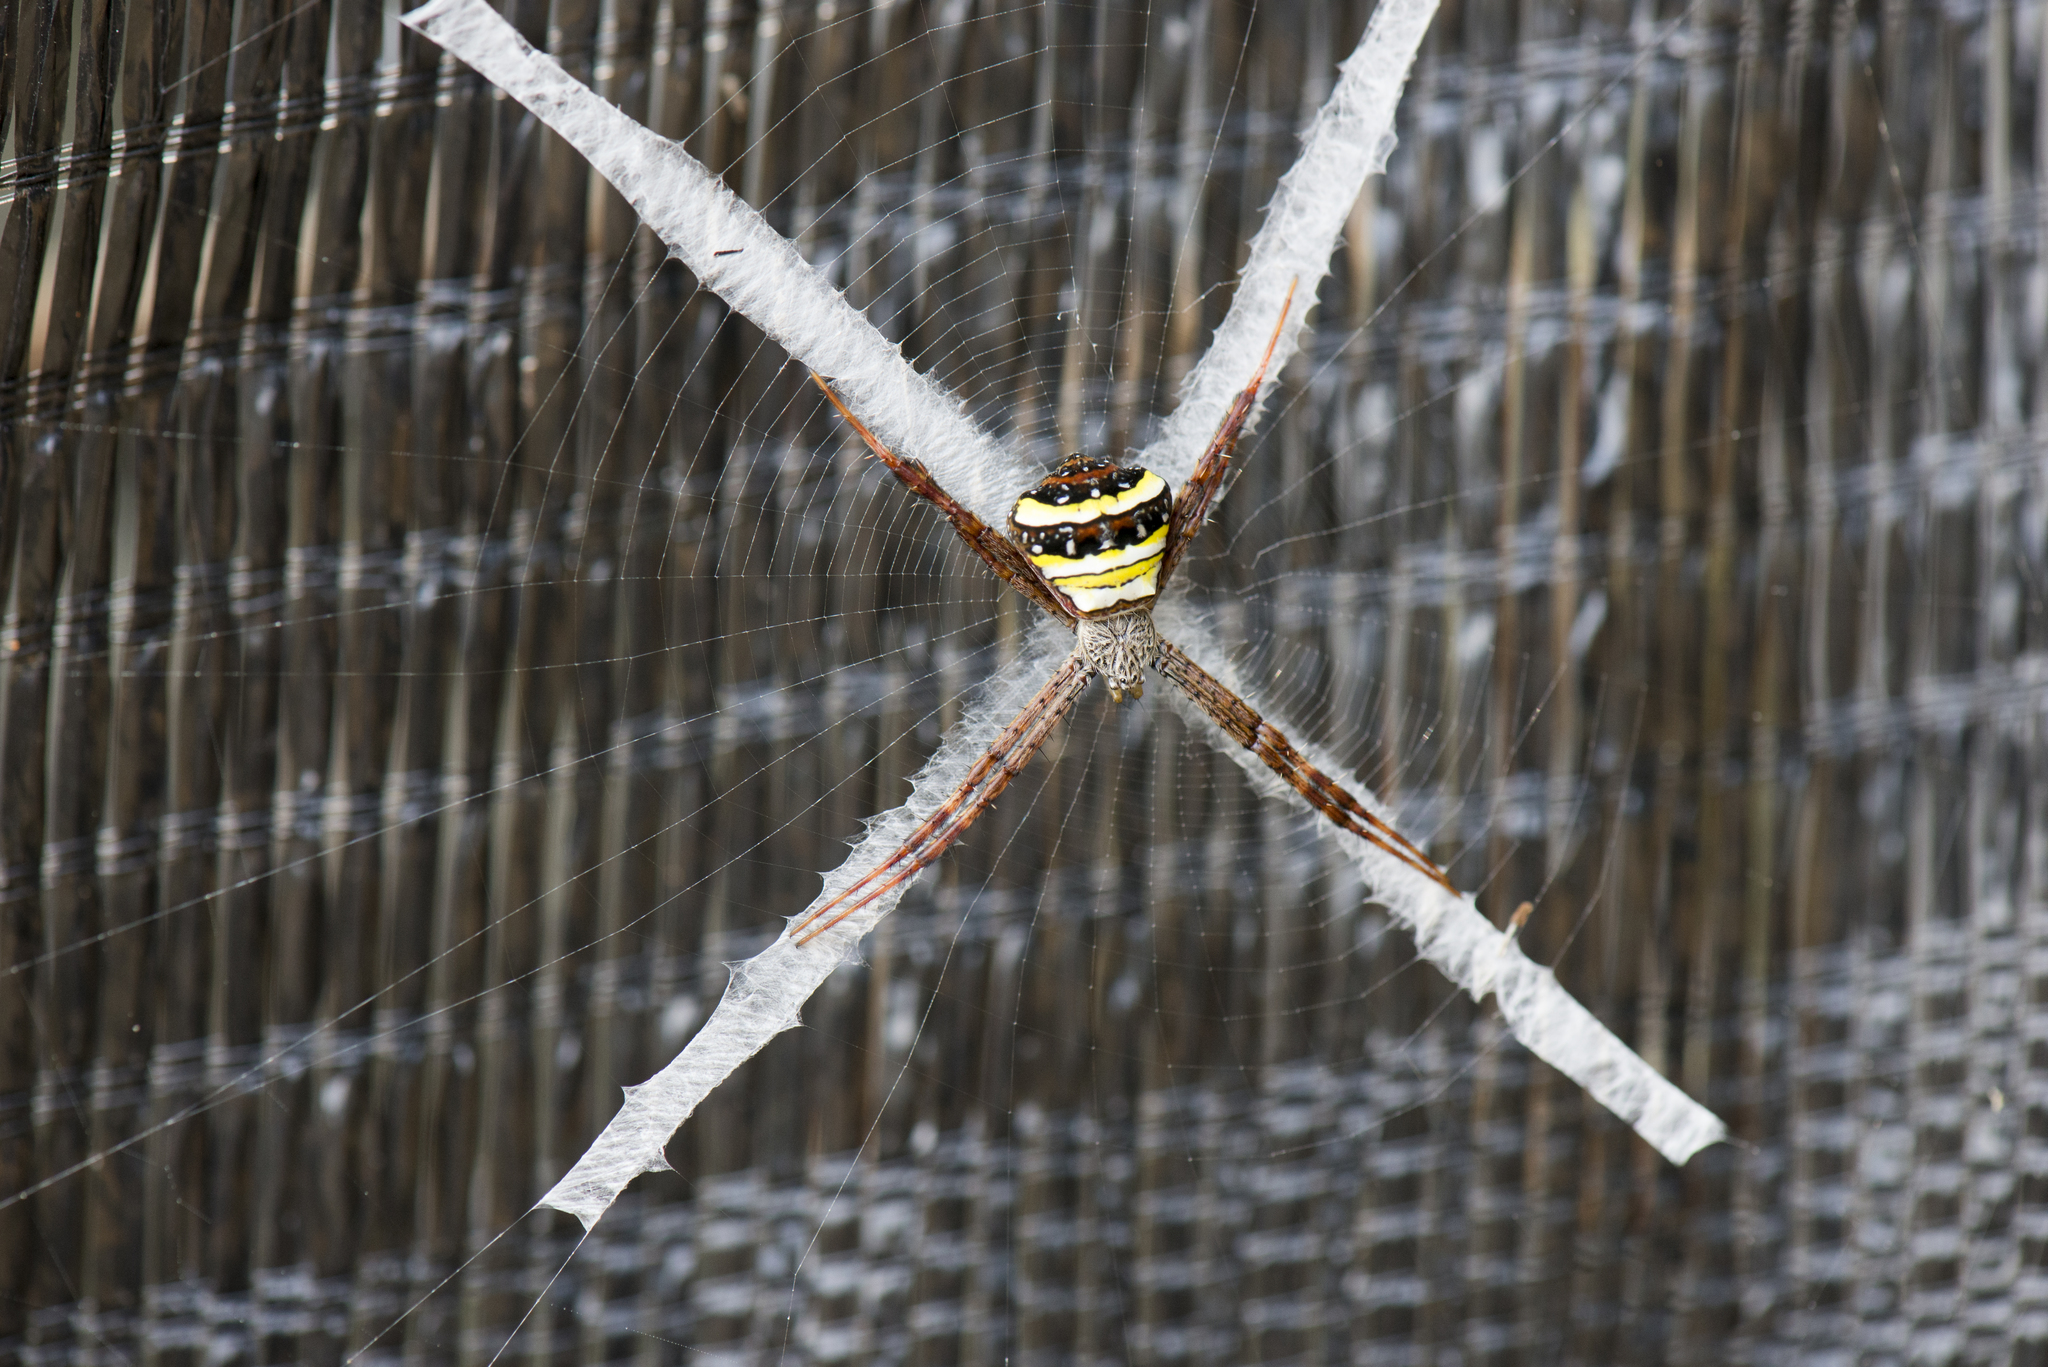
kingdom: Animalia
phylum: Arthropoda
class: Arachnida
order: Araneae
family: Araneidae
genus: Argiope
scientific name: Argiope aetheroides
